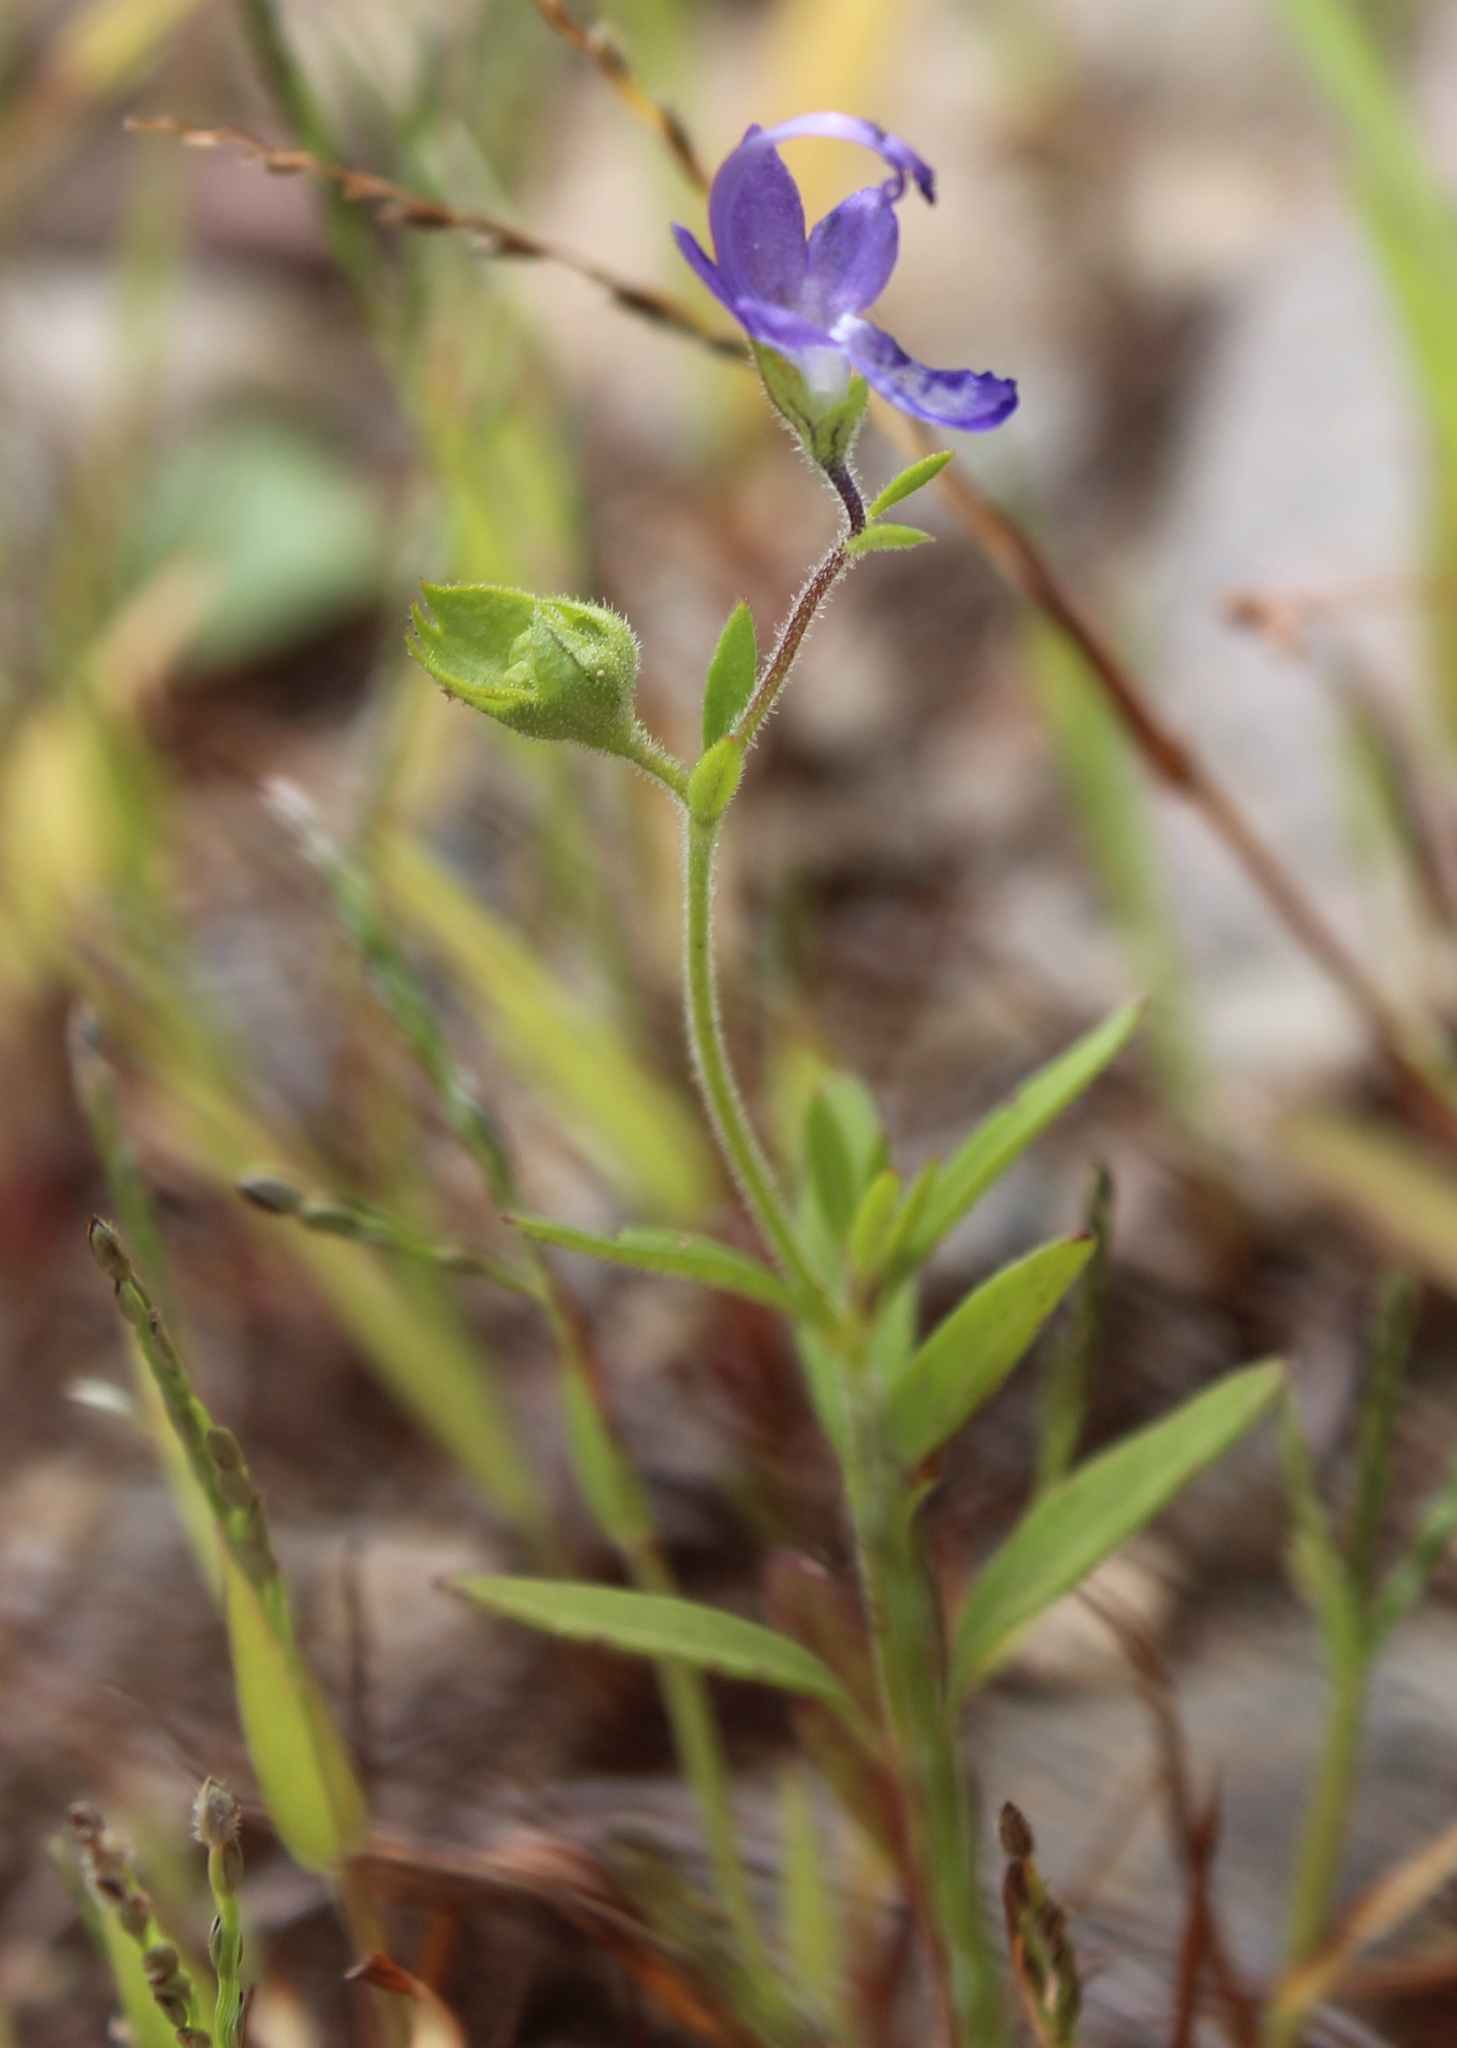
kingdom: Plantae
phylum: Tracheophyta
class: Magnoliopsida
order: Lamiales
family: Lamiaceae
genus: Trichostema
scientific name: Trichostema dichotomum
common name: Bastard pennyroyal
